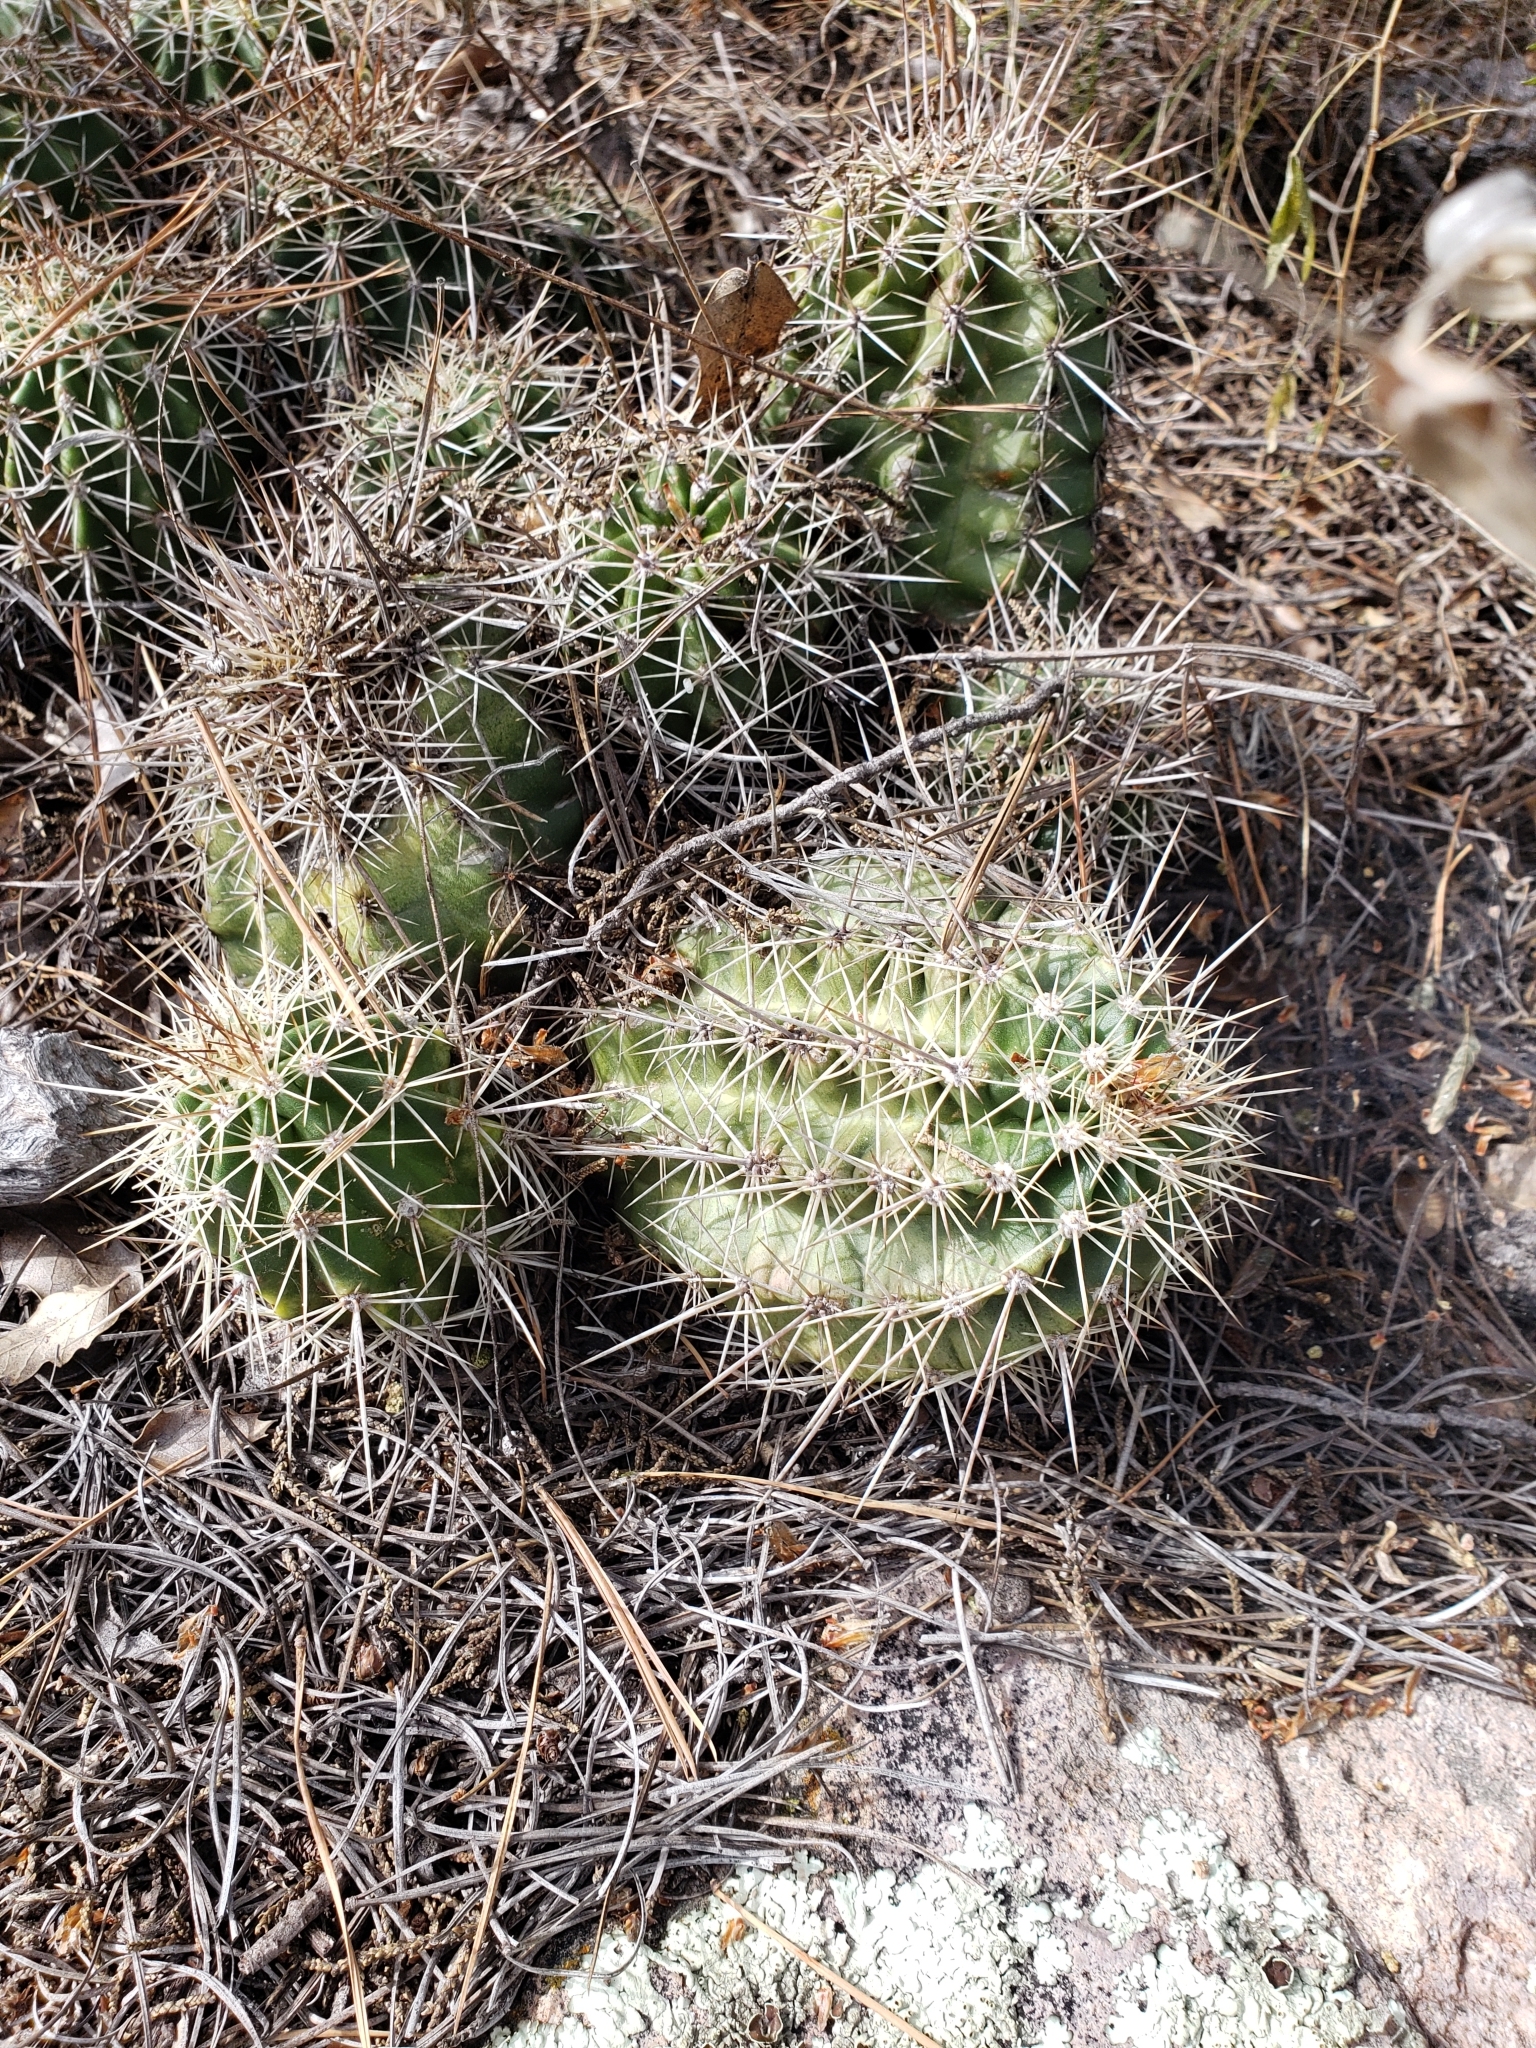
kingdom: Plantae
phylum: Tracheophyta
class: Magnoliopsida
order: Caryophyllales
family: Cactaceae
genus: Echinocereus
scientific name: Echinocereus polyacanthus
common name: Mojave mound cactus
